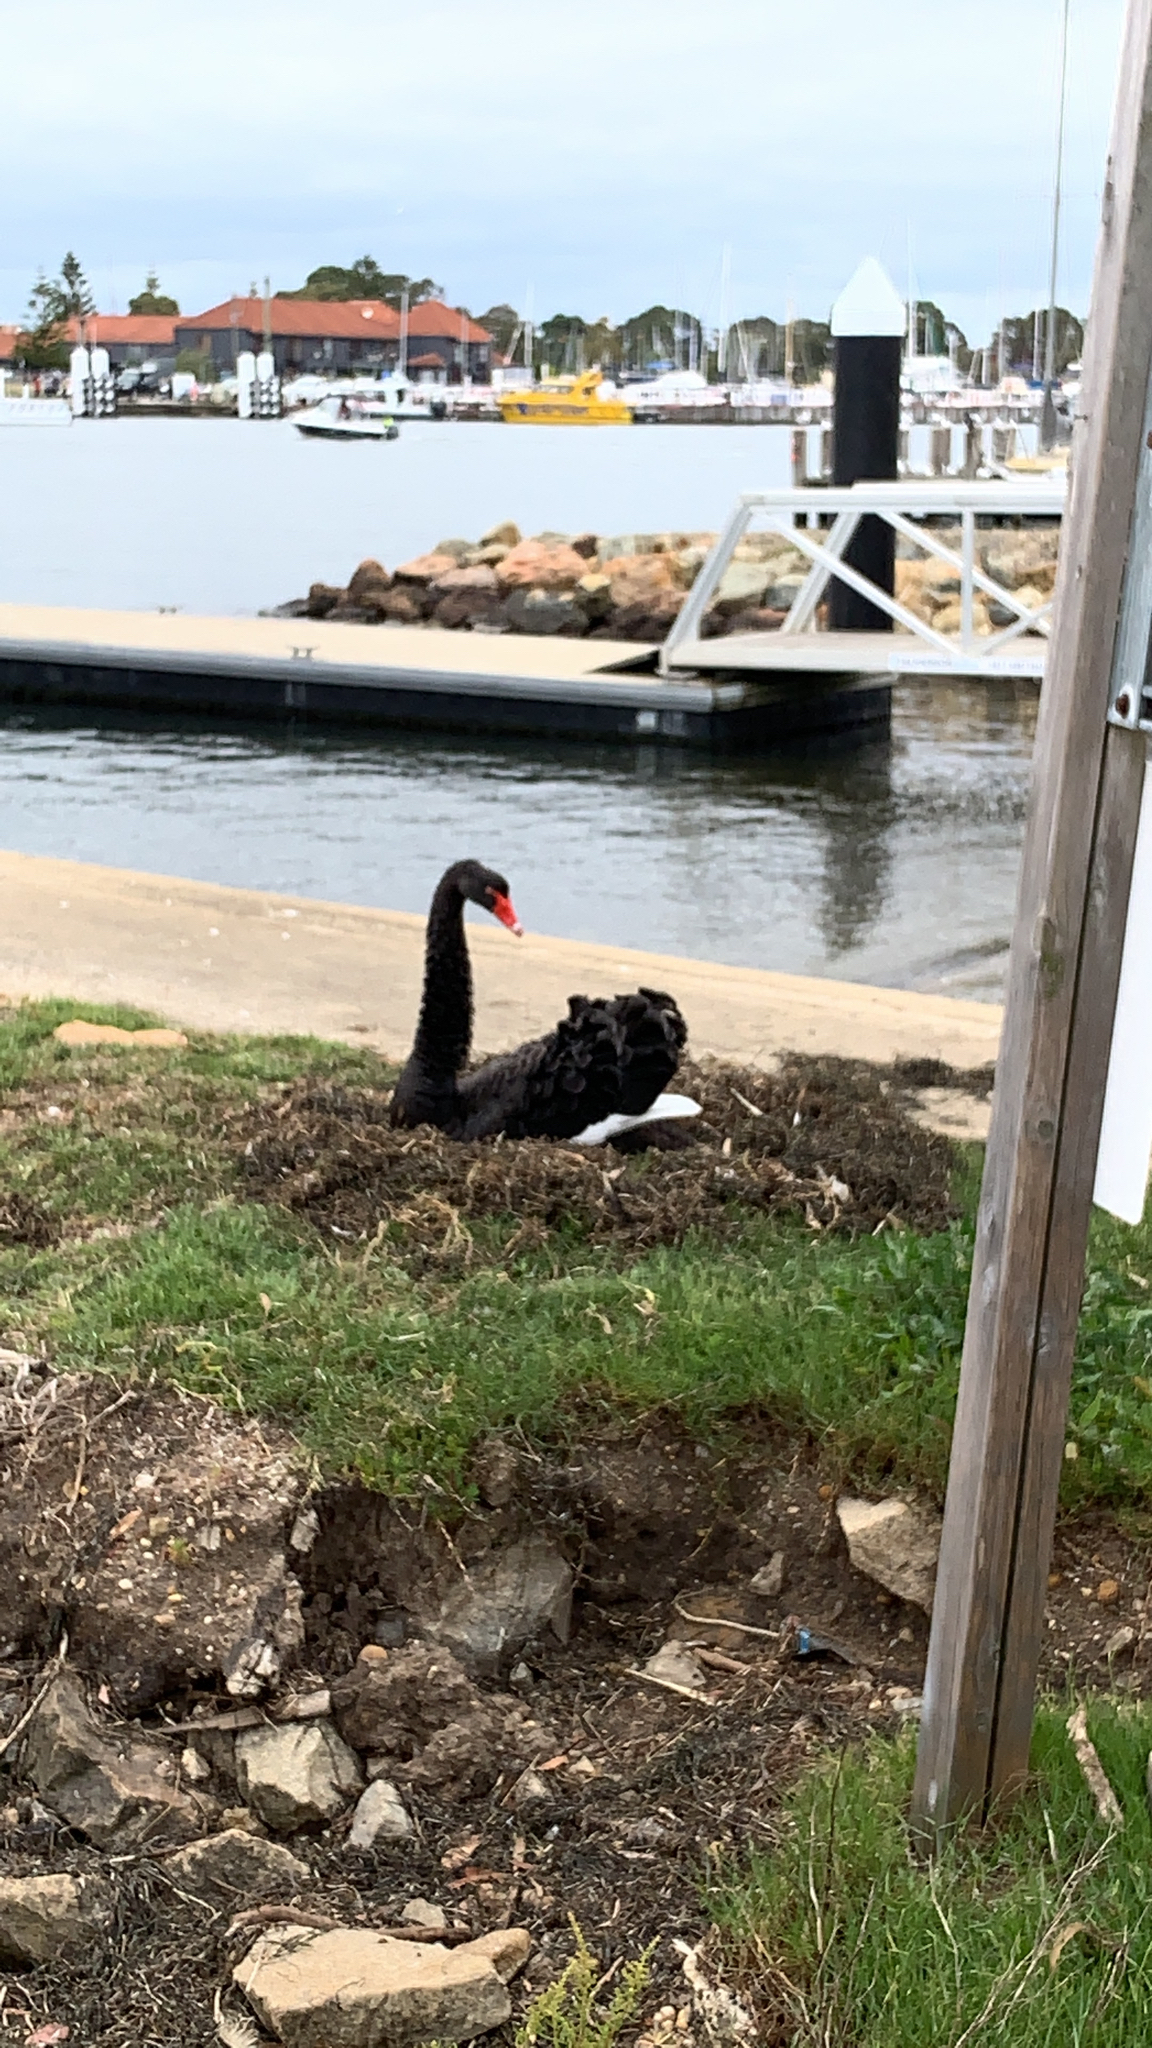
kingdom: Animalia
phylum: Chordata
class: Aves
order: Anseriformes
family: Anatidae
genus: Cygnus
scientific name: Cygnus atratus
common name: Black swan
